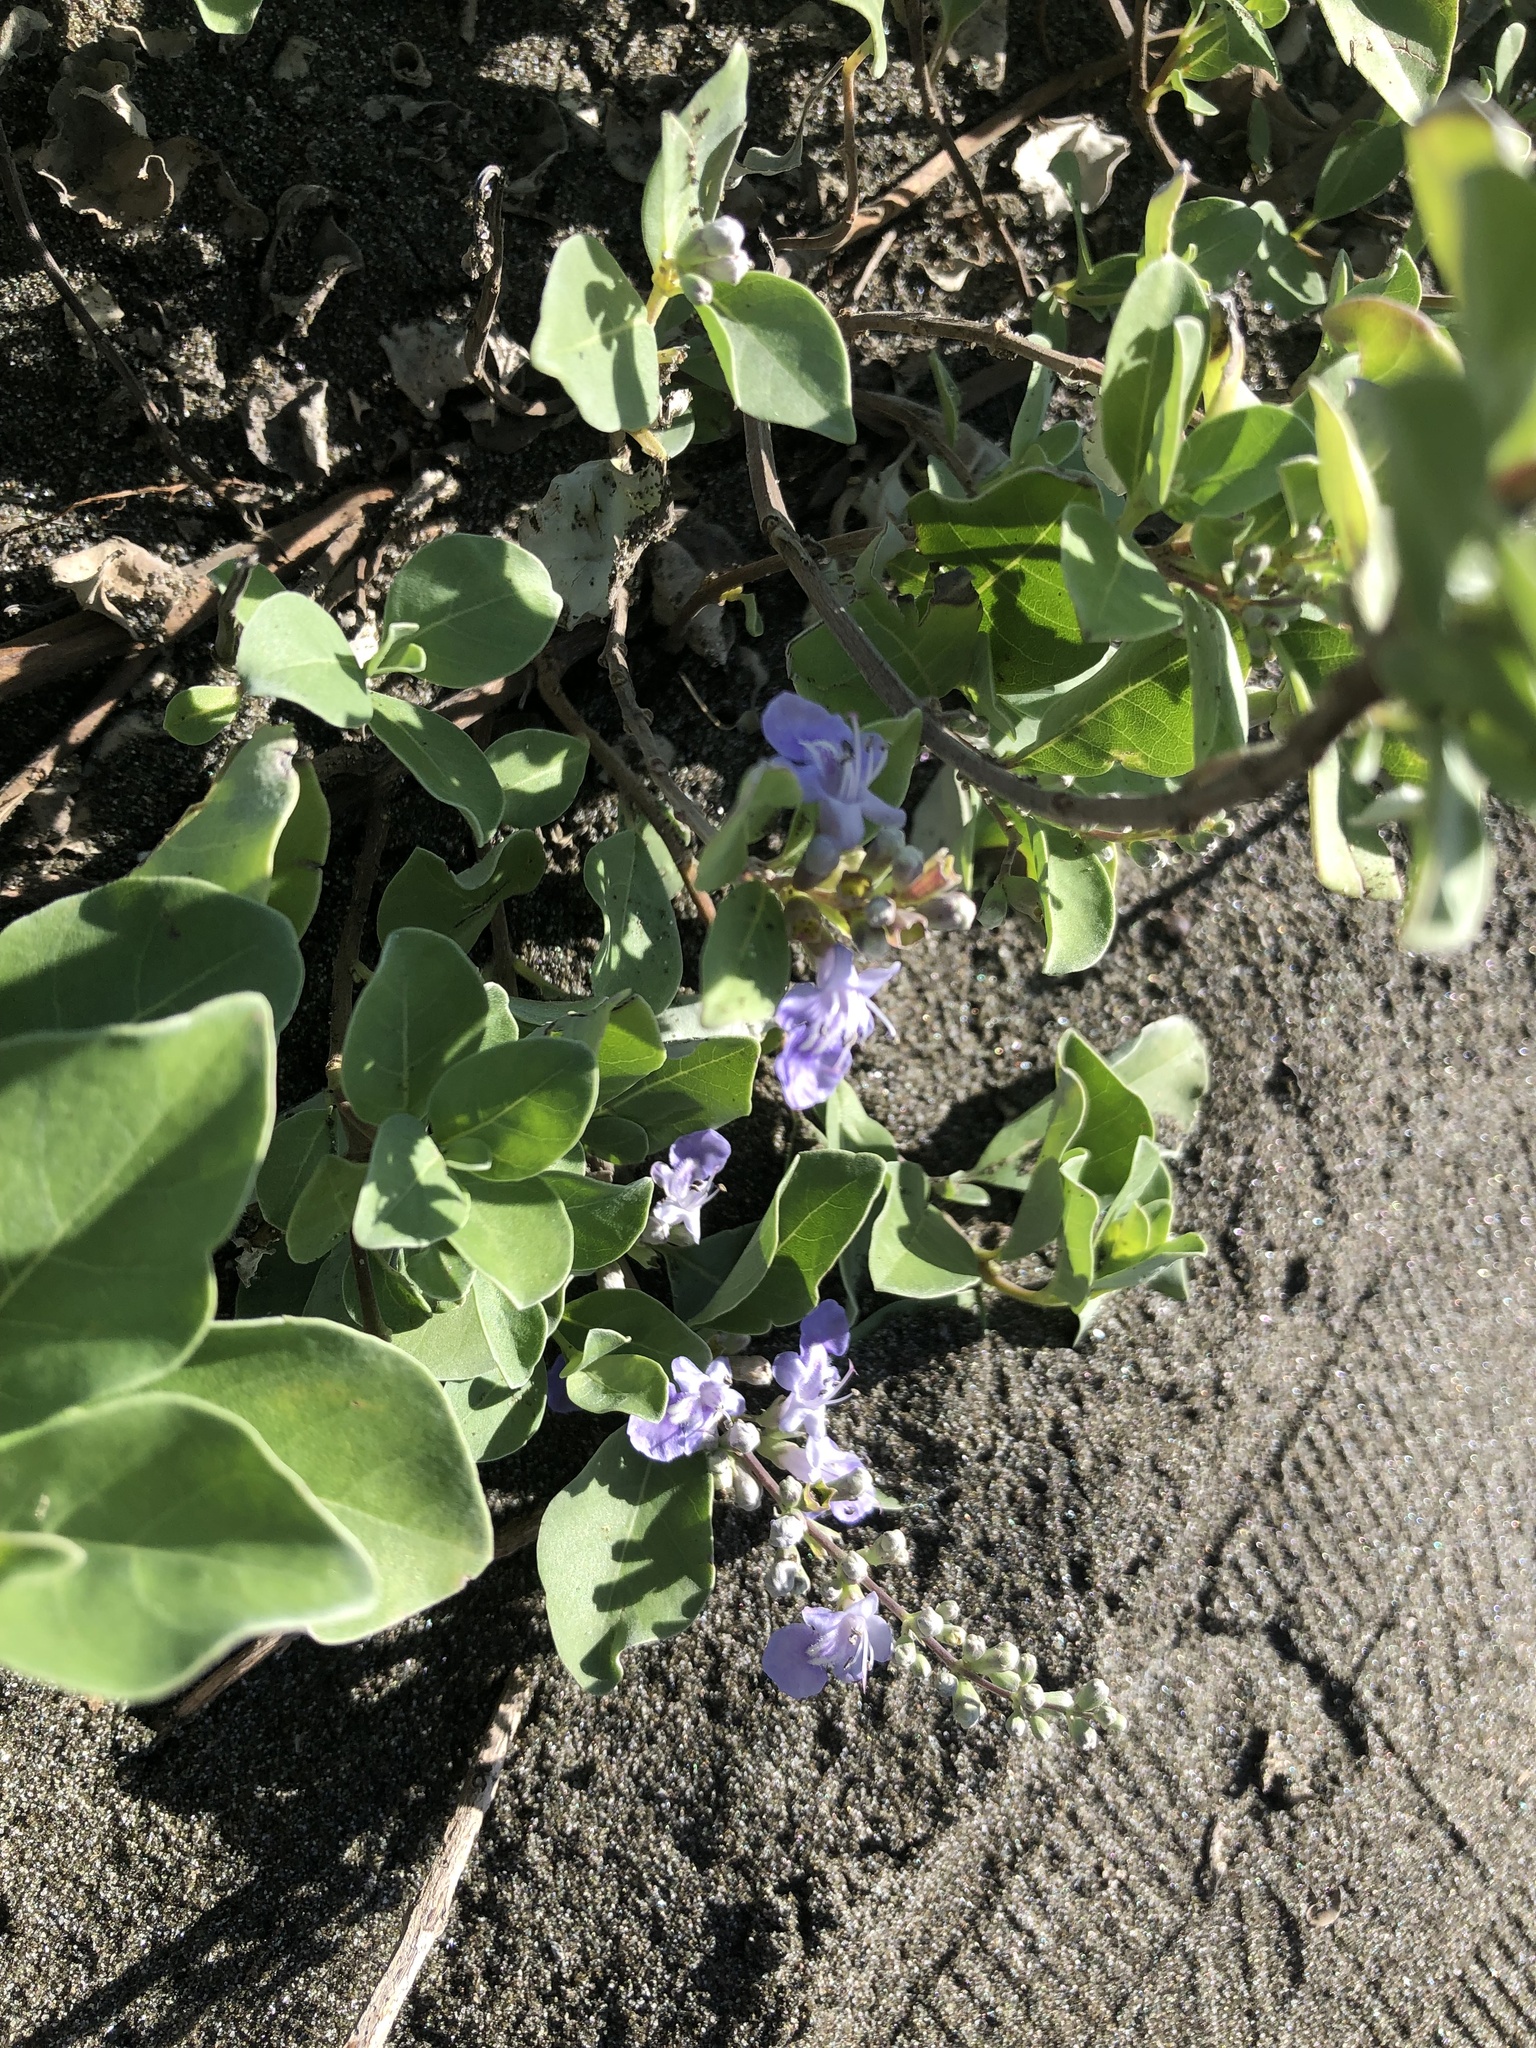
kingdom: Plantae
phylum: Tracheophyta
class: Magnoliopsida
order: Lamiales
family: Lamiaceae
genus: Vitex
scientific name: Vitex rotundifolia
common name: Beach vitex
